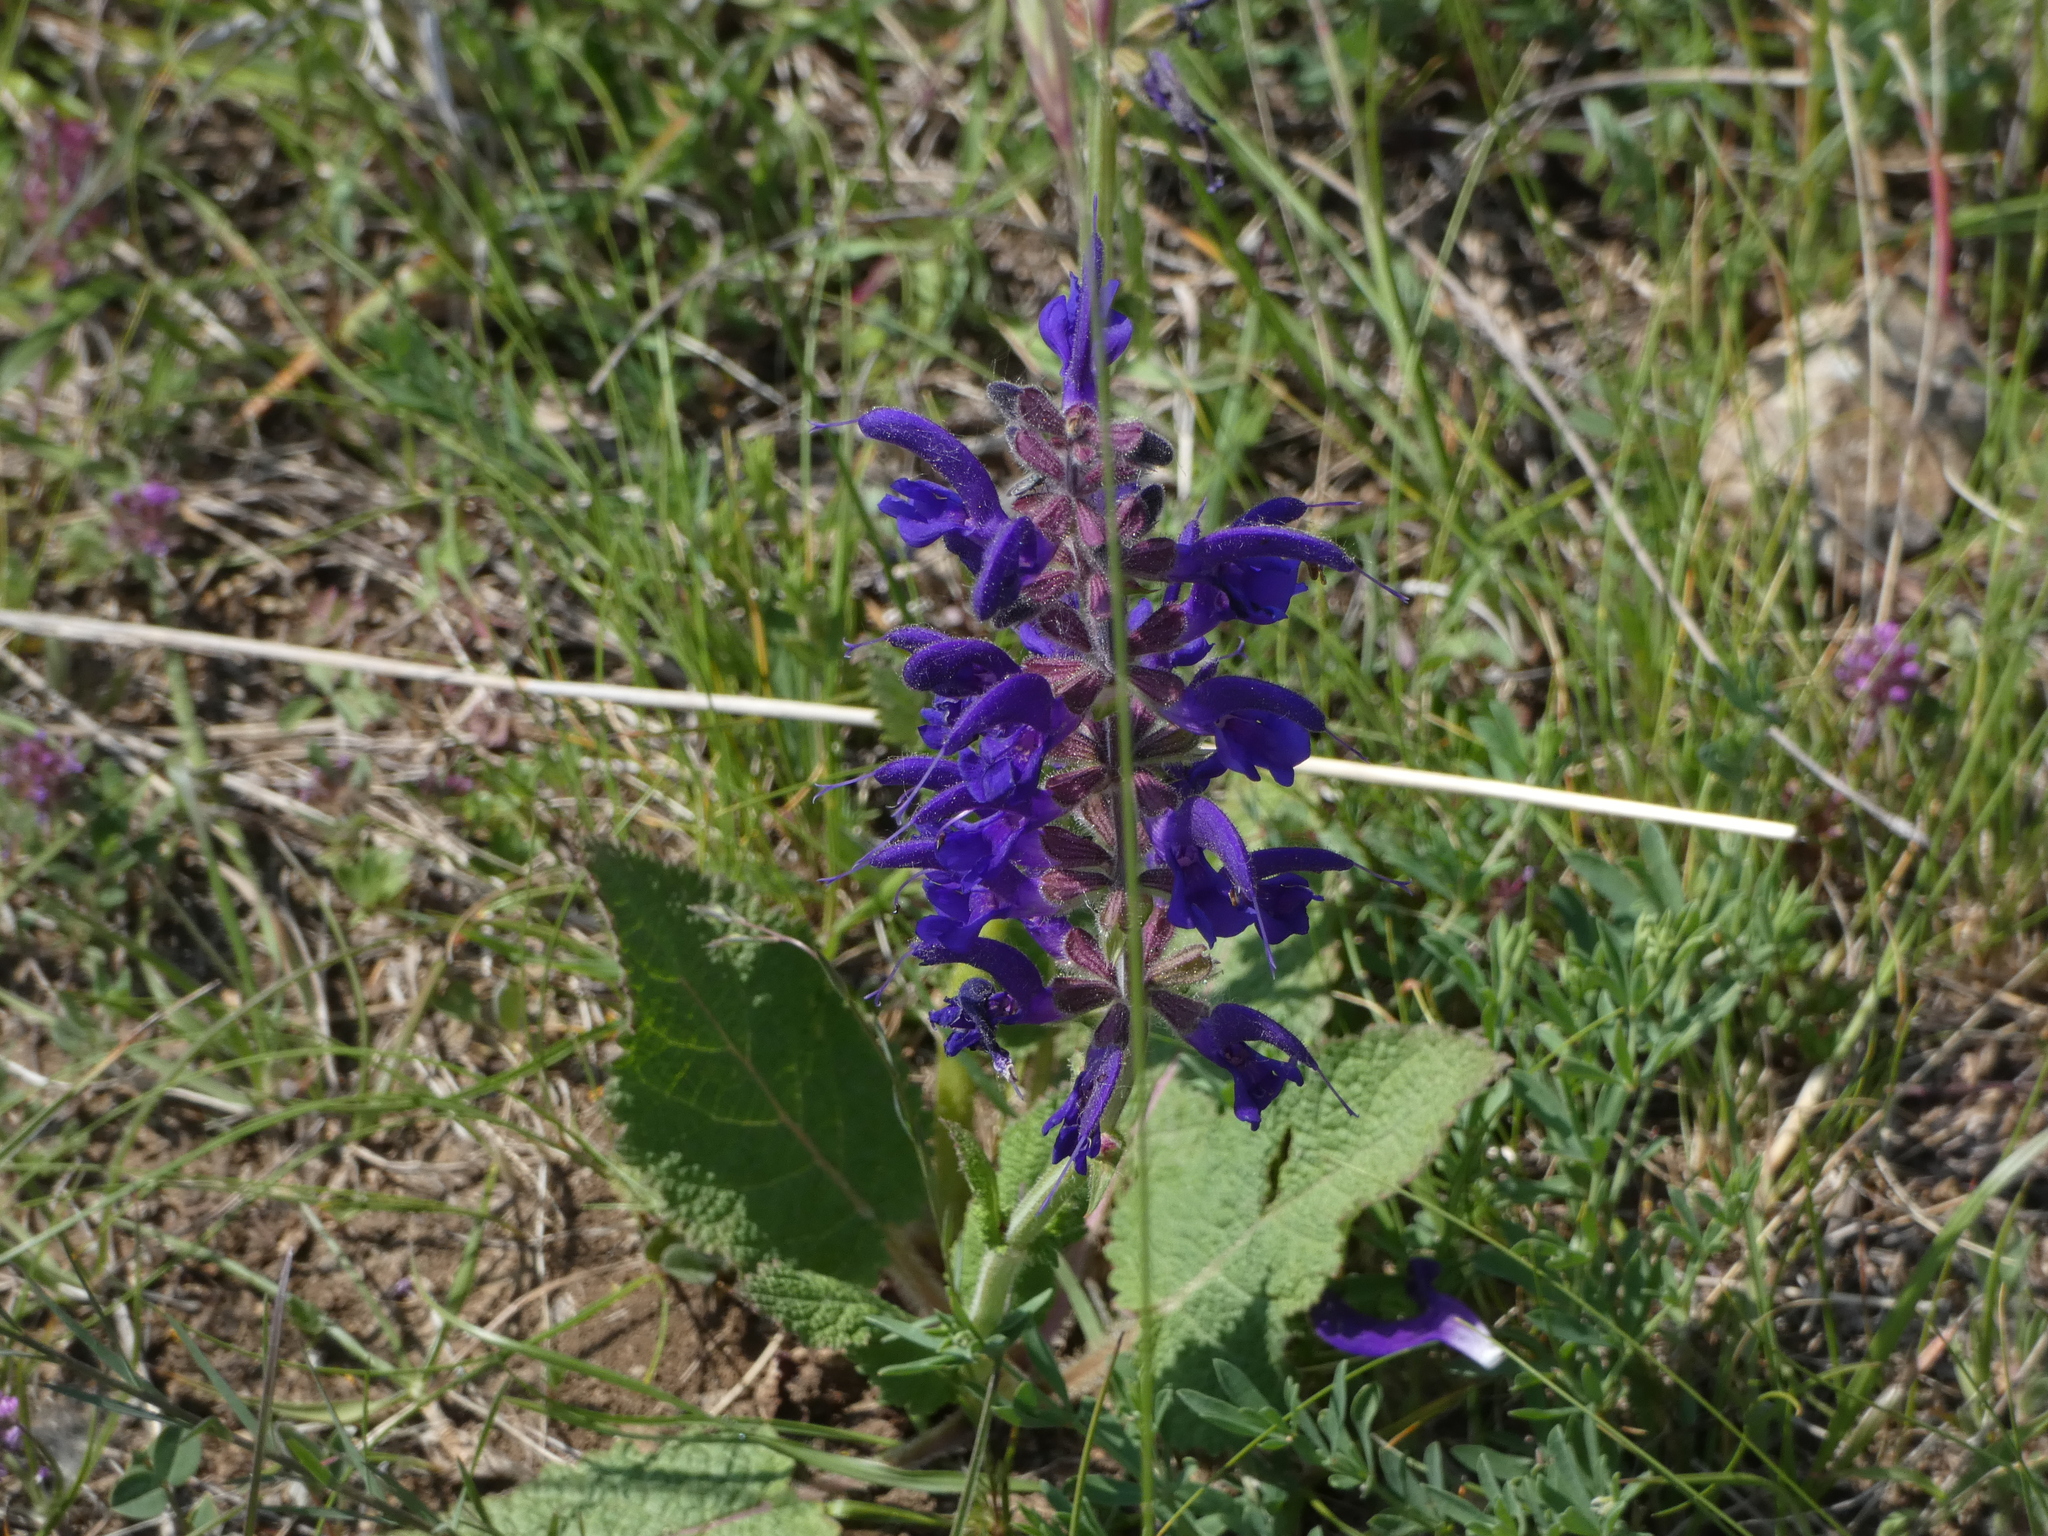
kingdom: Plantae
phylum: Tracheophyta
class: Magnoliopsida
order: Lamiales
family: Lamiaceae
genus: Salvia
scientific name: Salvia pratensis
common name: Meadow sage
